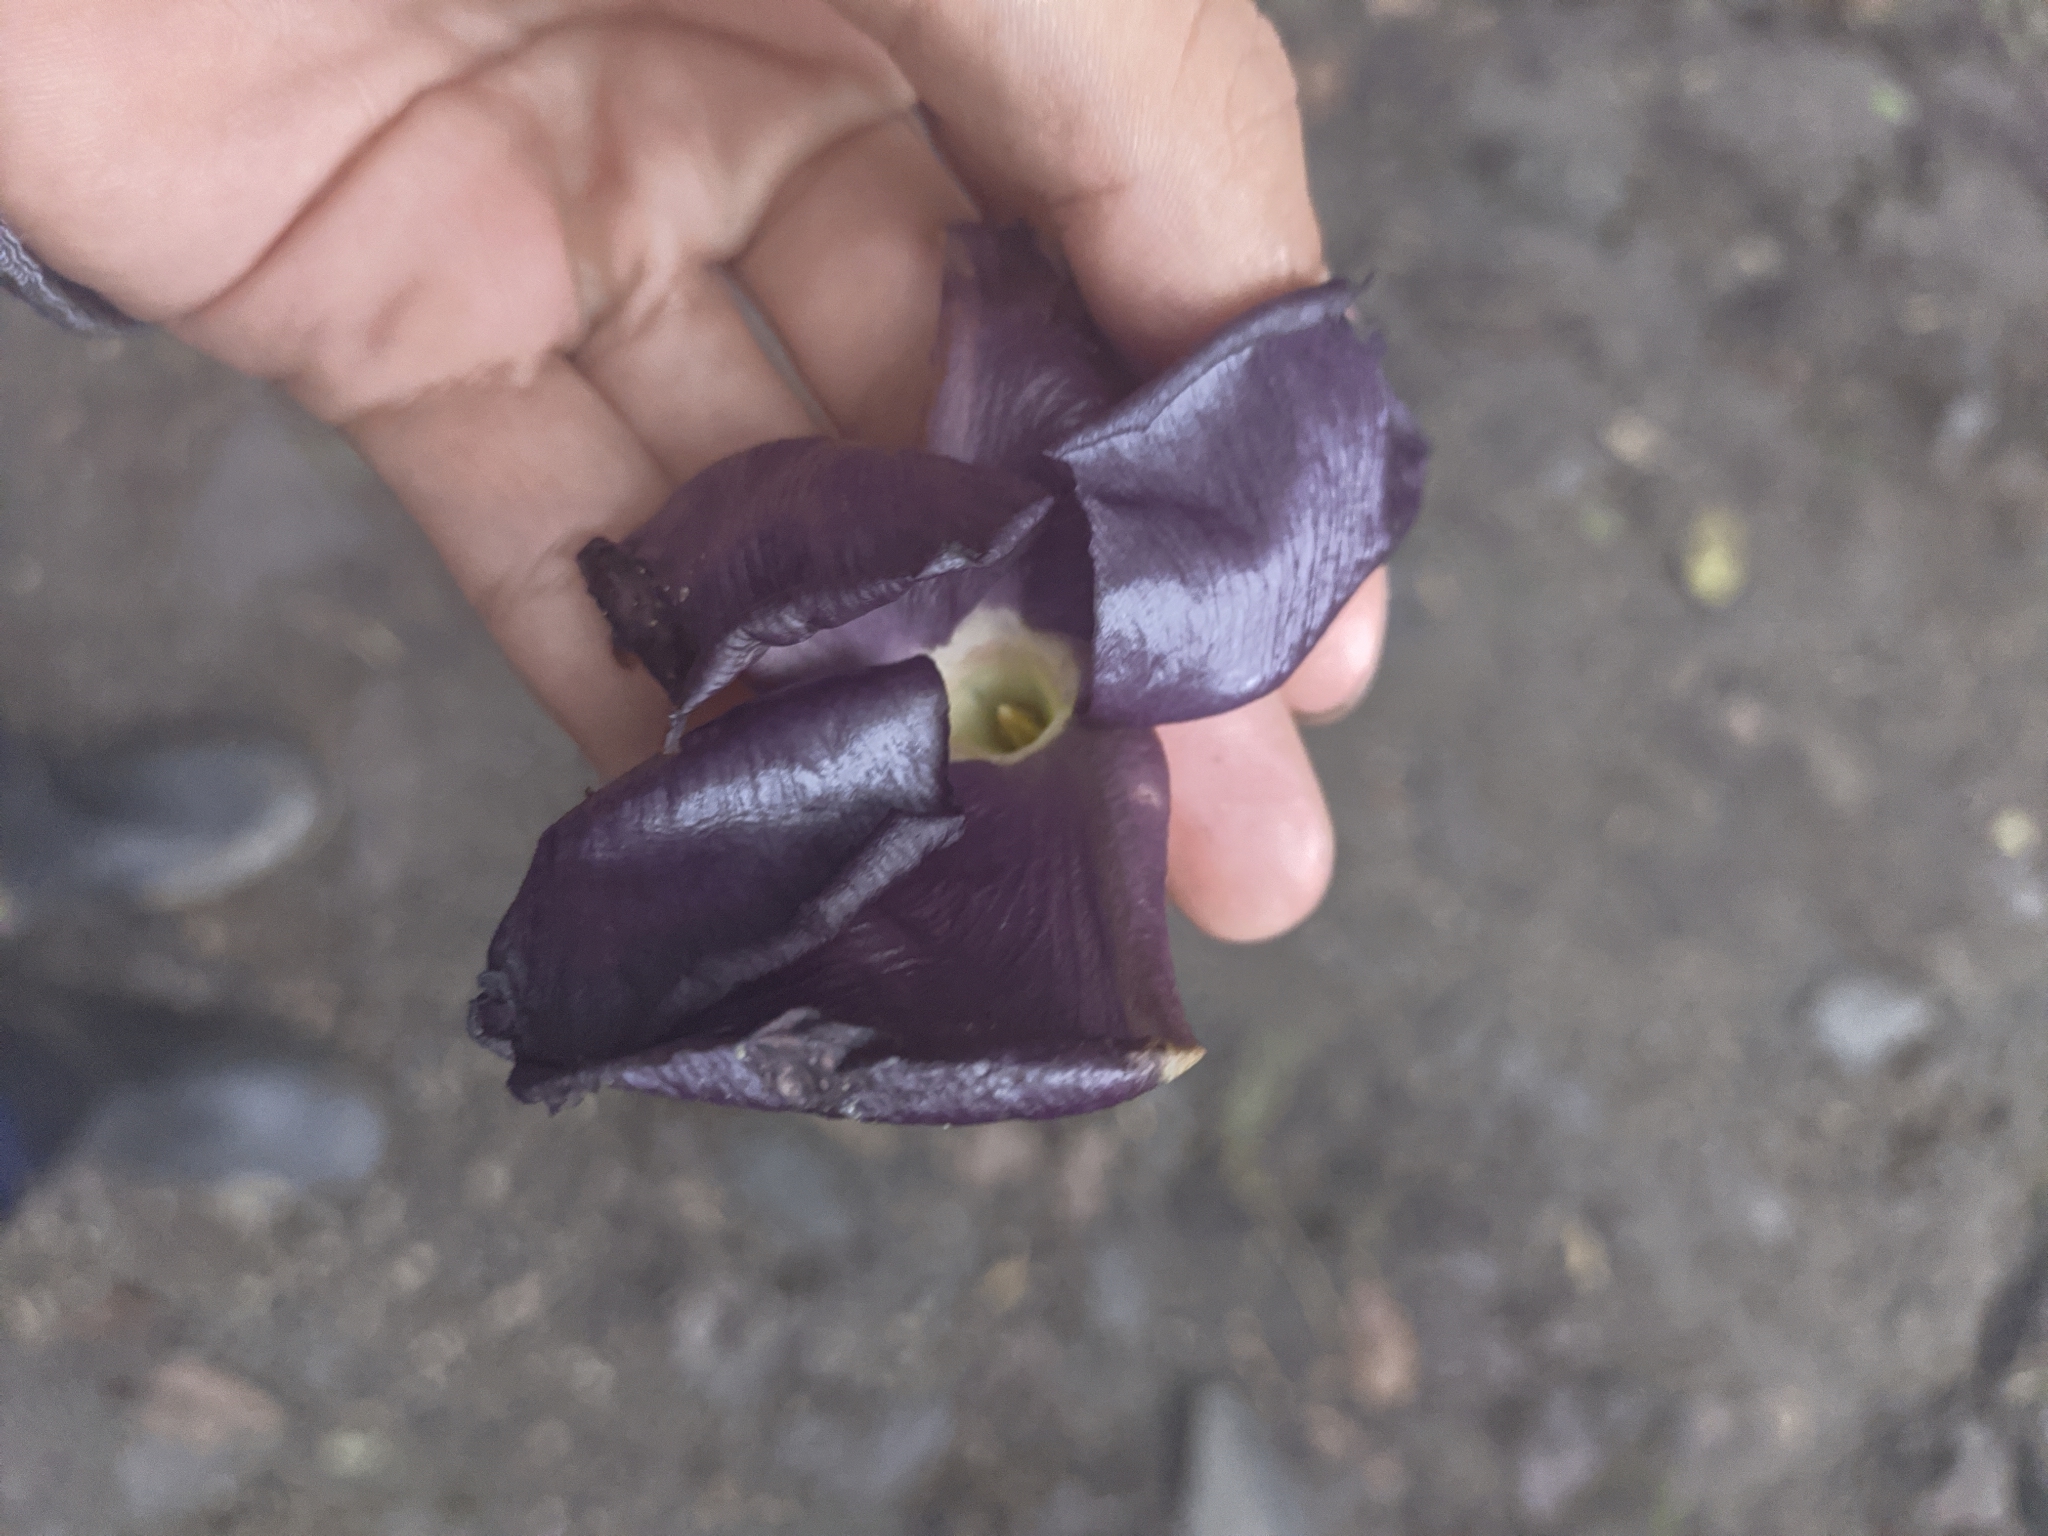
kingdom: Plantae
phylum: Tracheophyta
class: Magnoliopsida
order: Gentianales
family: Apocynaceae
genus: Mandevilla
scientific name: Mandevilla veraguasensis
